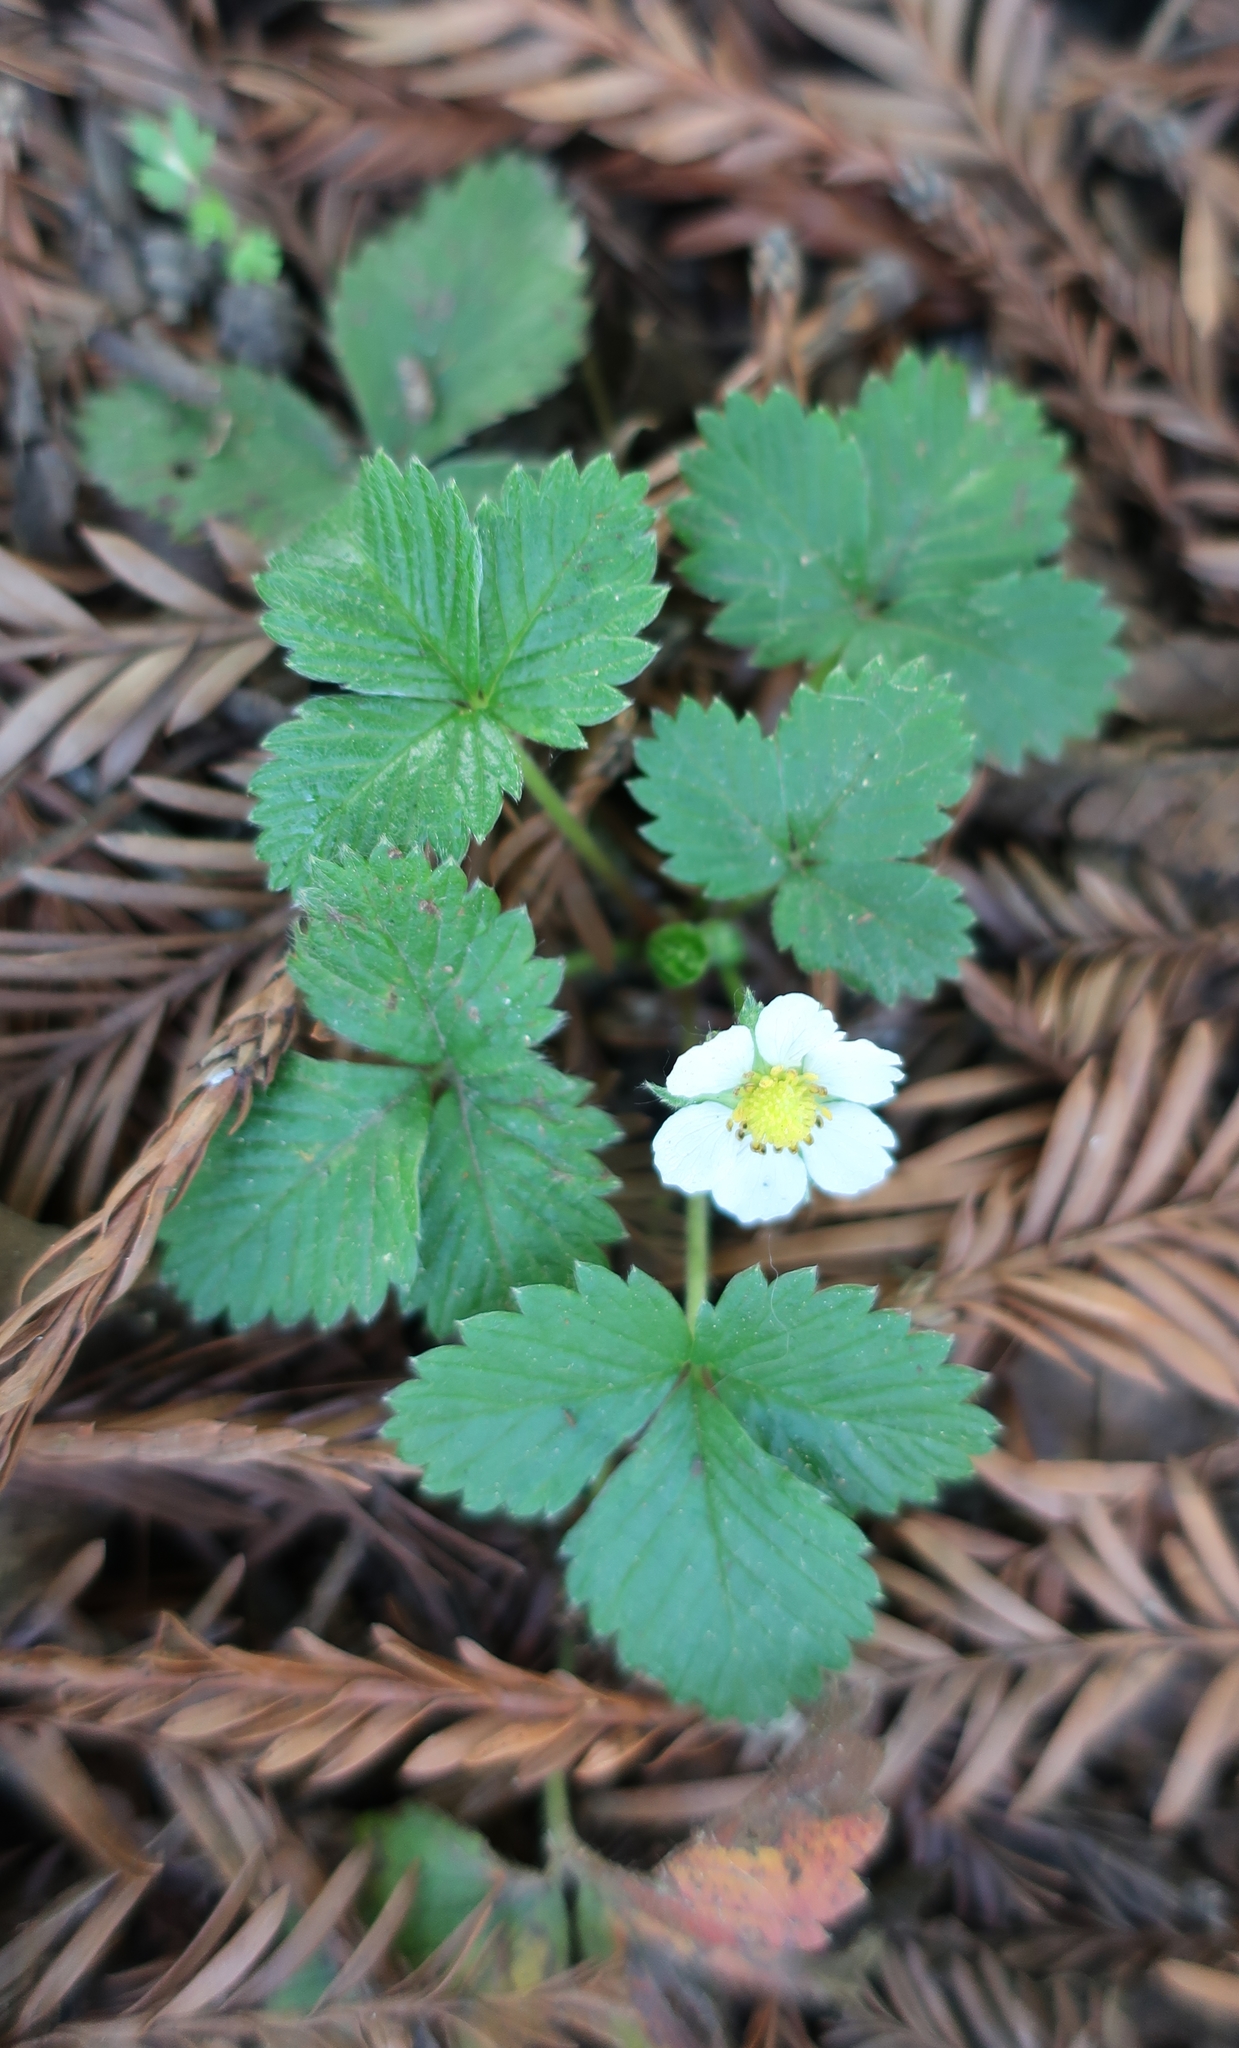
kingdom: Plantae
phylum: Tracheophyta
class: Magnoliopsida
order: Rosales
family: Rosaceae
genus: Fragaria
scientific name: Fragaria vesca
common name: Wild strawberry
